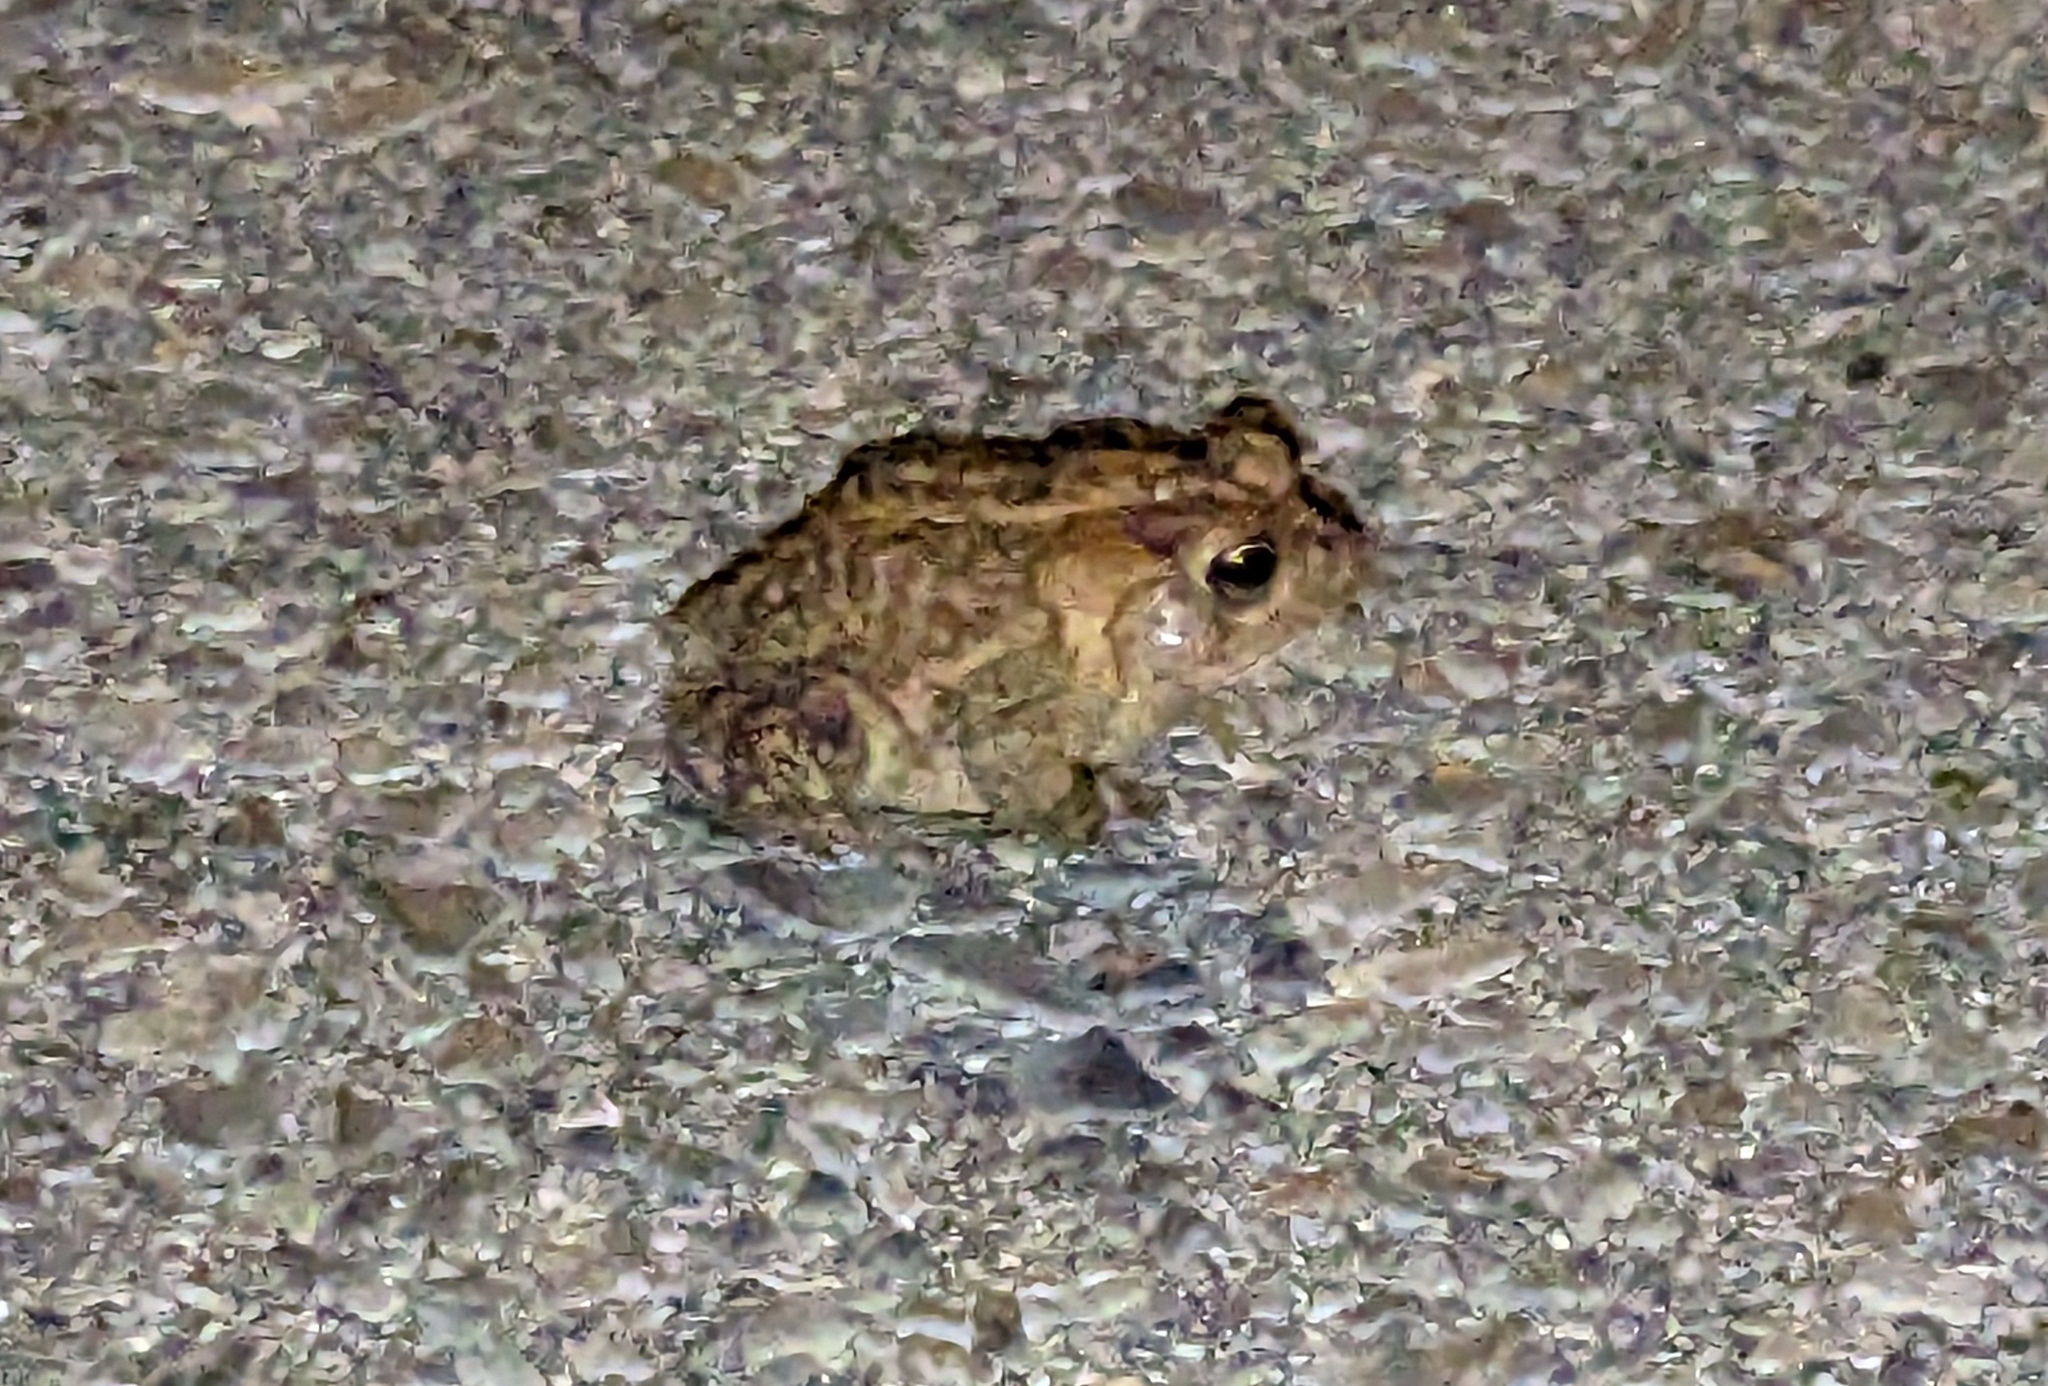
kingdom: Animalia
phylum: Chordata
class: Amphibia
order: Anura
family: Bufonidae
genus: Anaxyrus
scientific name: Anaxyrus terrestris
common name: Southern toad
